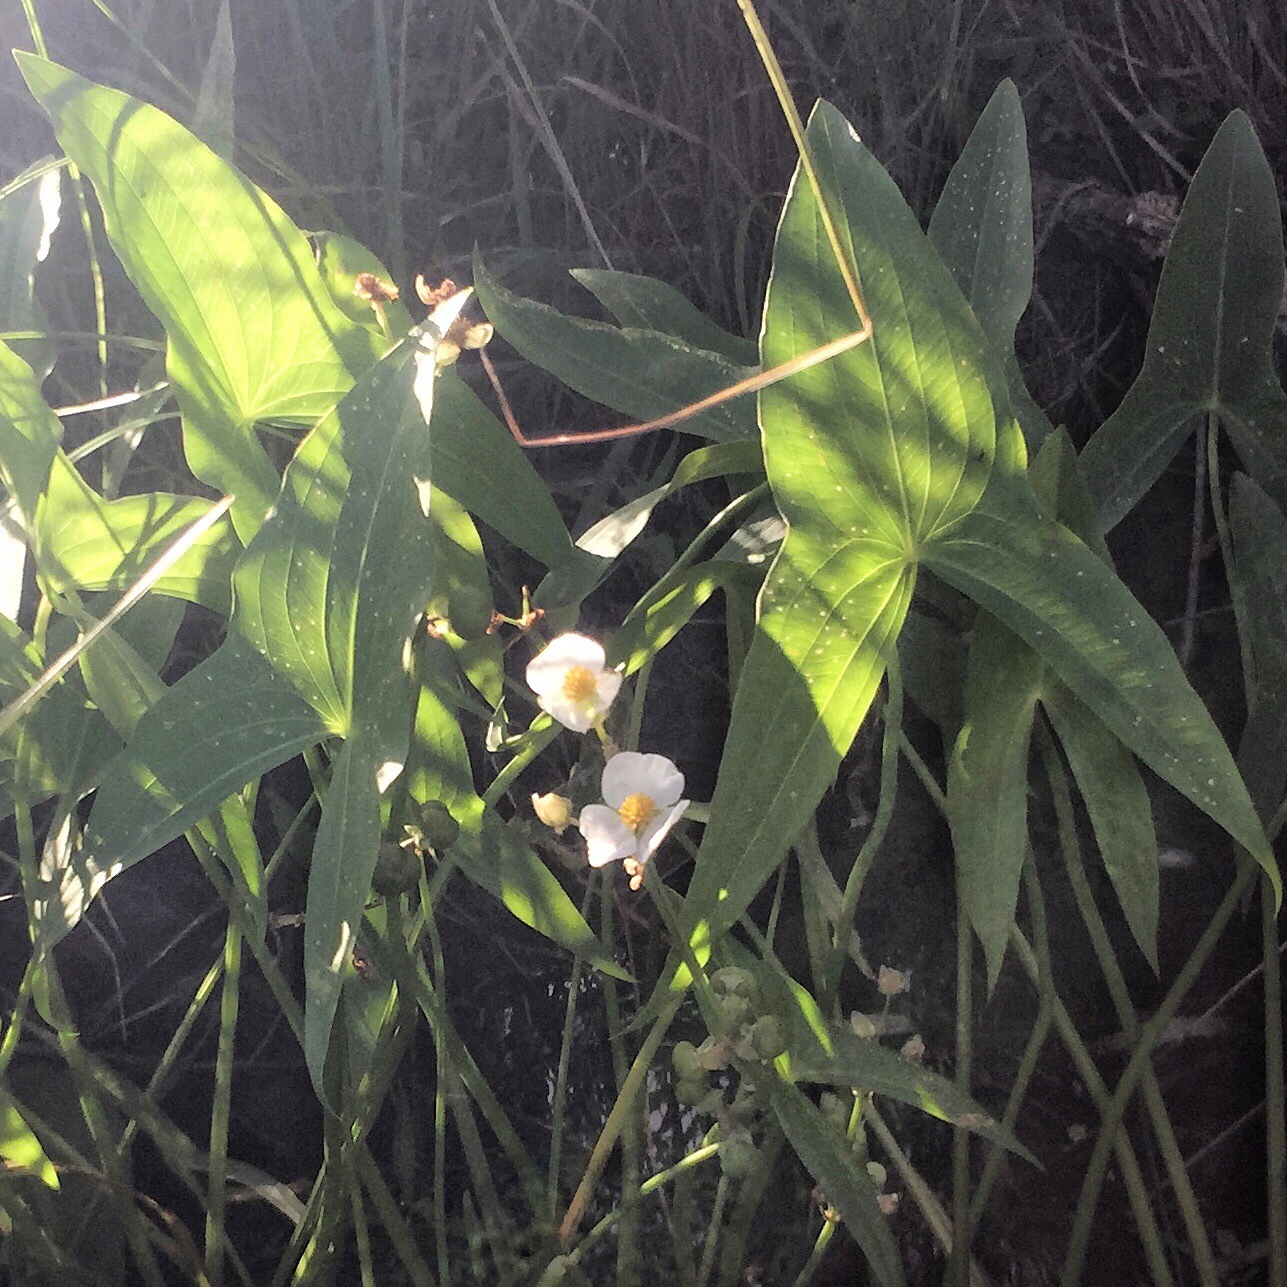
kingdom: Plantae
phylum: Tracheophyta
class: Liliopsida
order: Alismatales
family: Alismataceae
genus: Sagittaria
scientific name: Sagittaria latifolia
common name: Duck-potato
